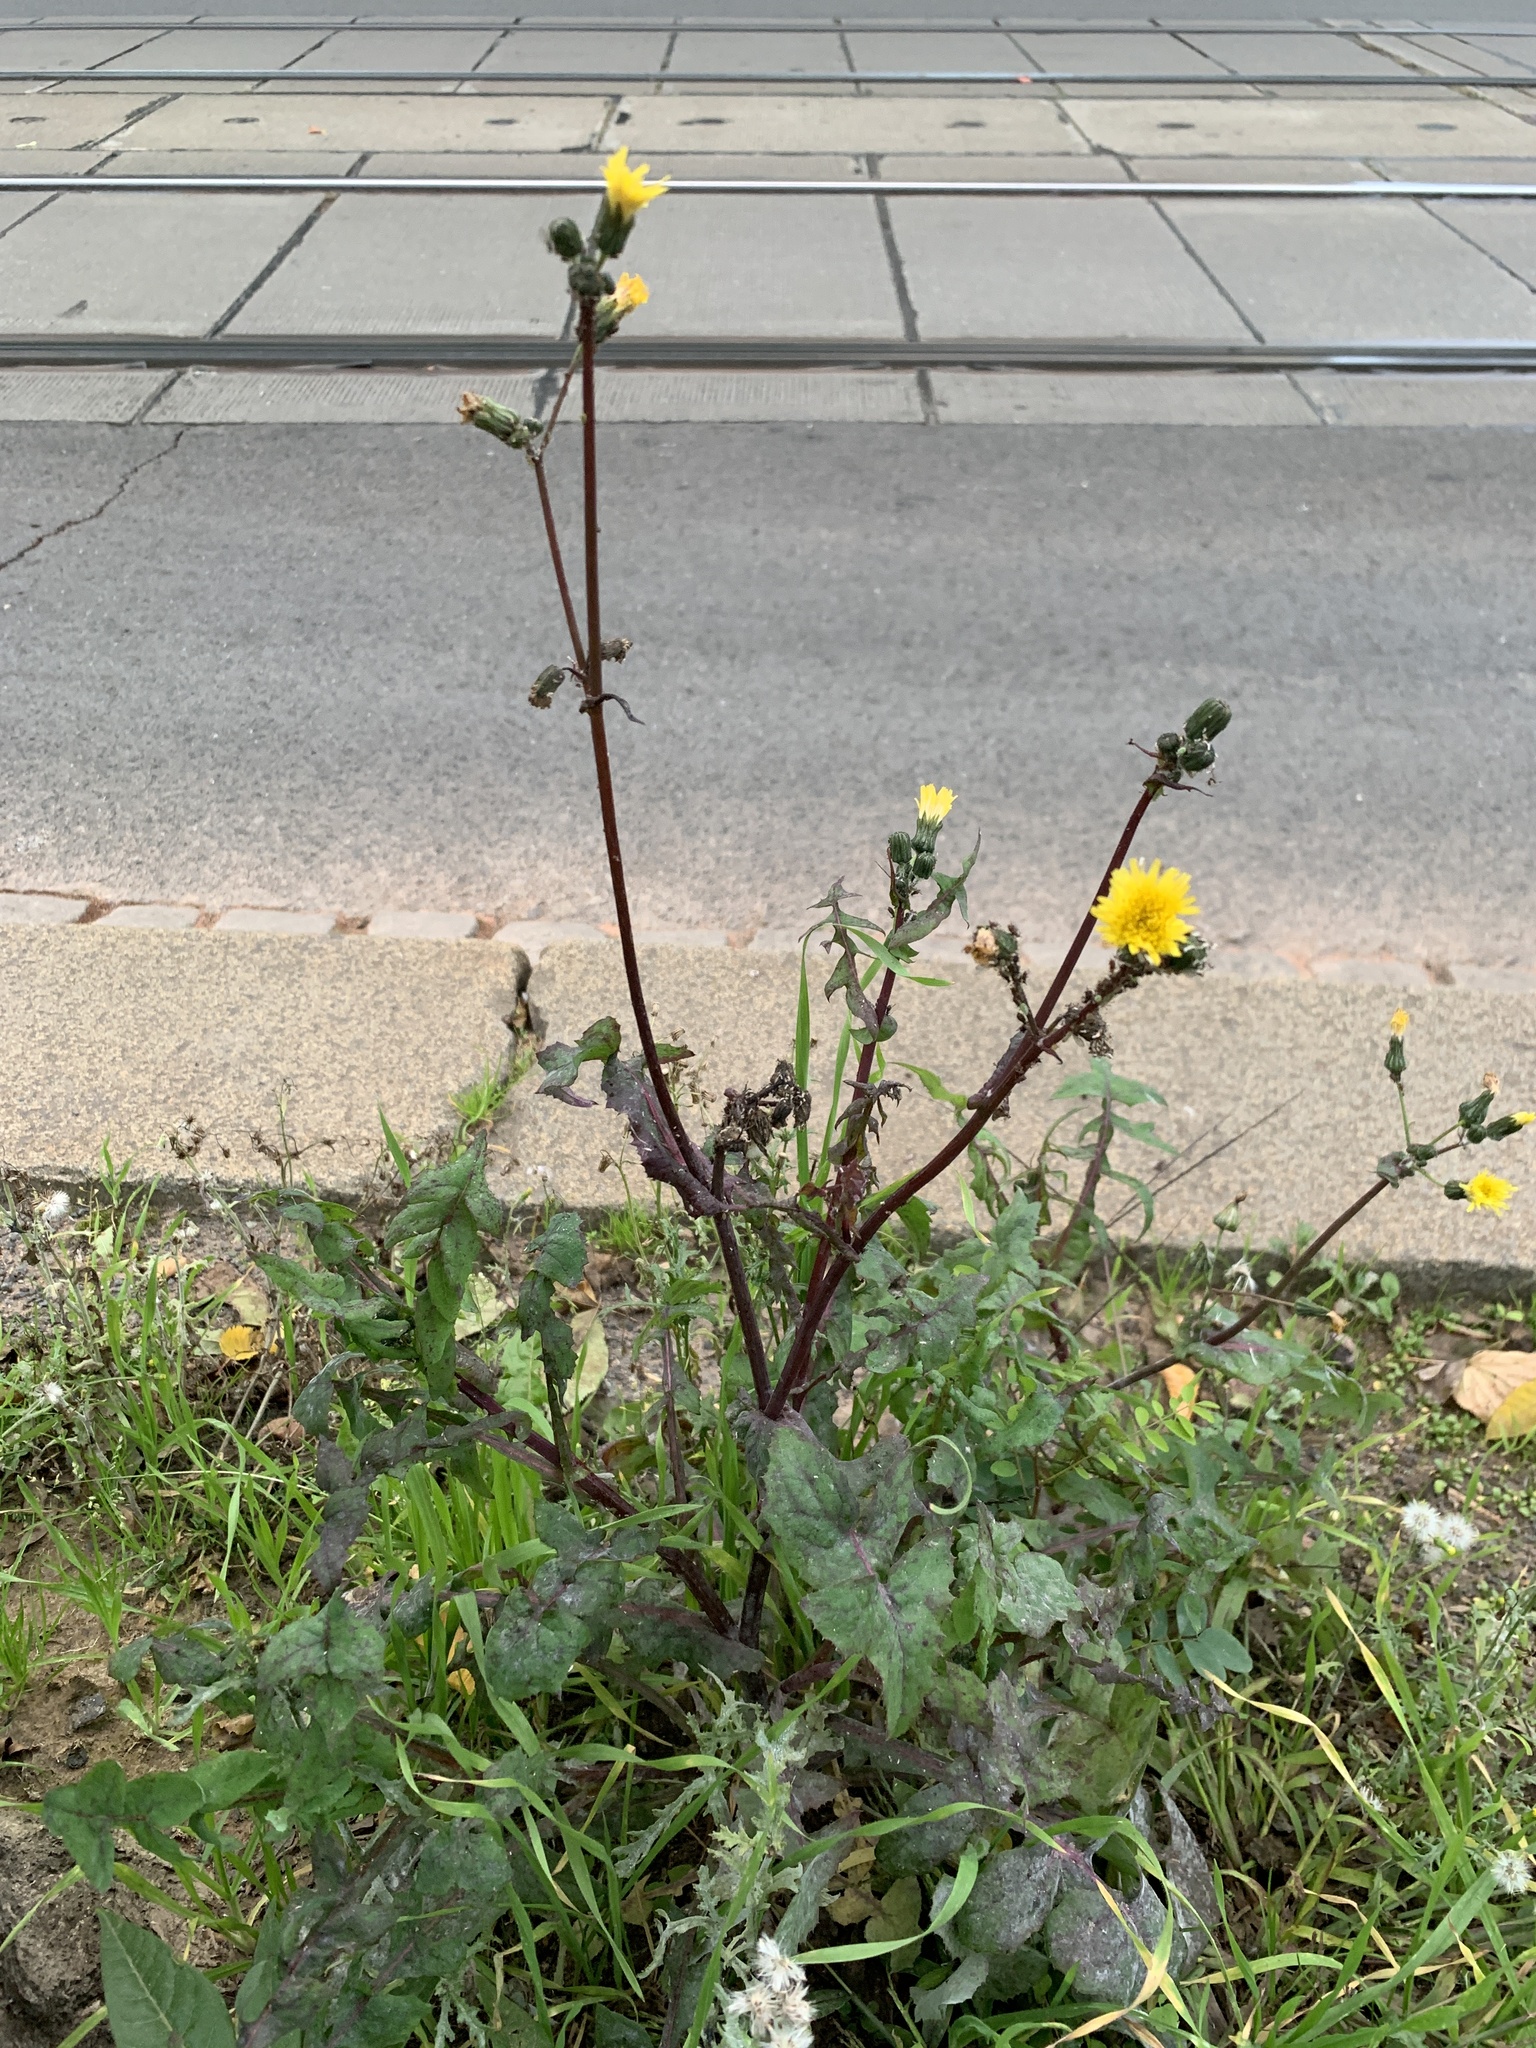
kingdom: Plantae
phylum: Tracheophyta
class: Magnoliopsida
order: Asterales
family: Asteraceae
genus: Sonchus
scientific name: Sonchus oleraceus
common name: Common sowthistle
